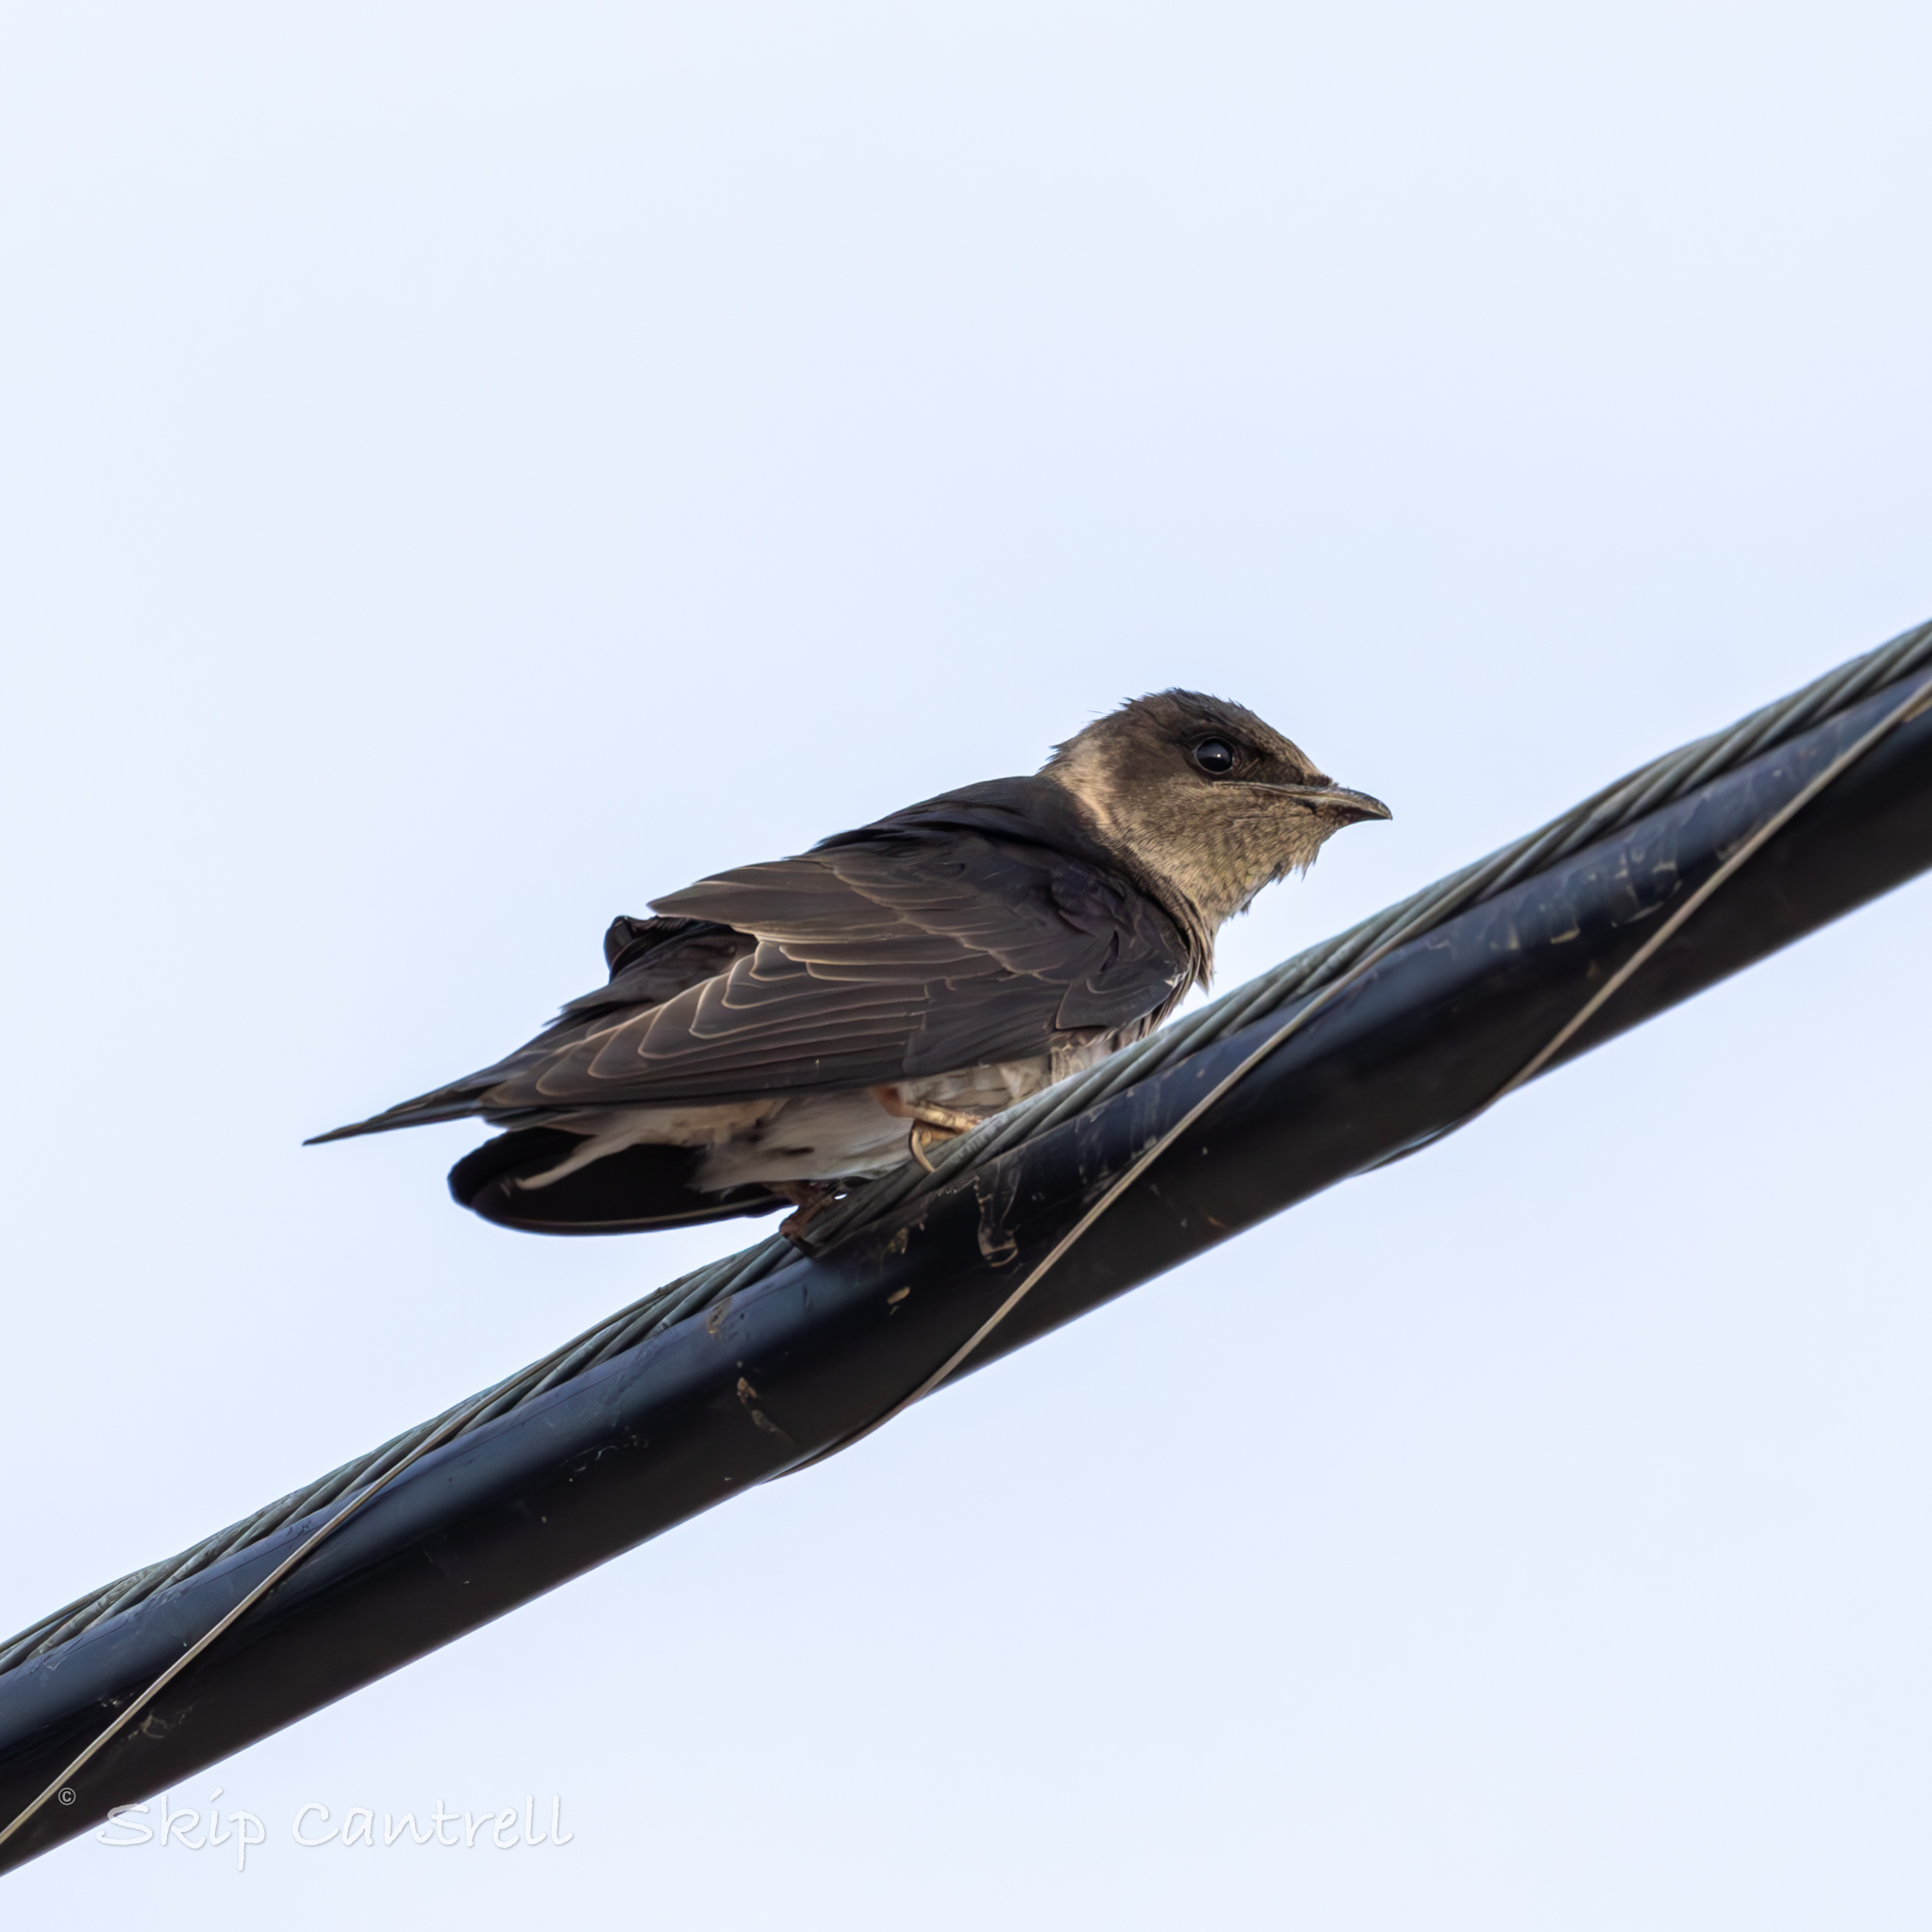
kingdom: Animalia
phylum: Chordata
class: Aves
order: Passeriformes
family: Hirundinidae
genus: Progne
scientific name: Progne subis
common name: Purple martin
